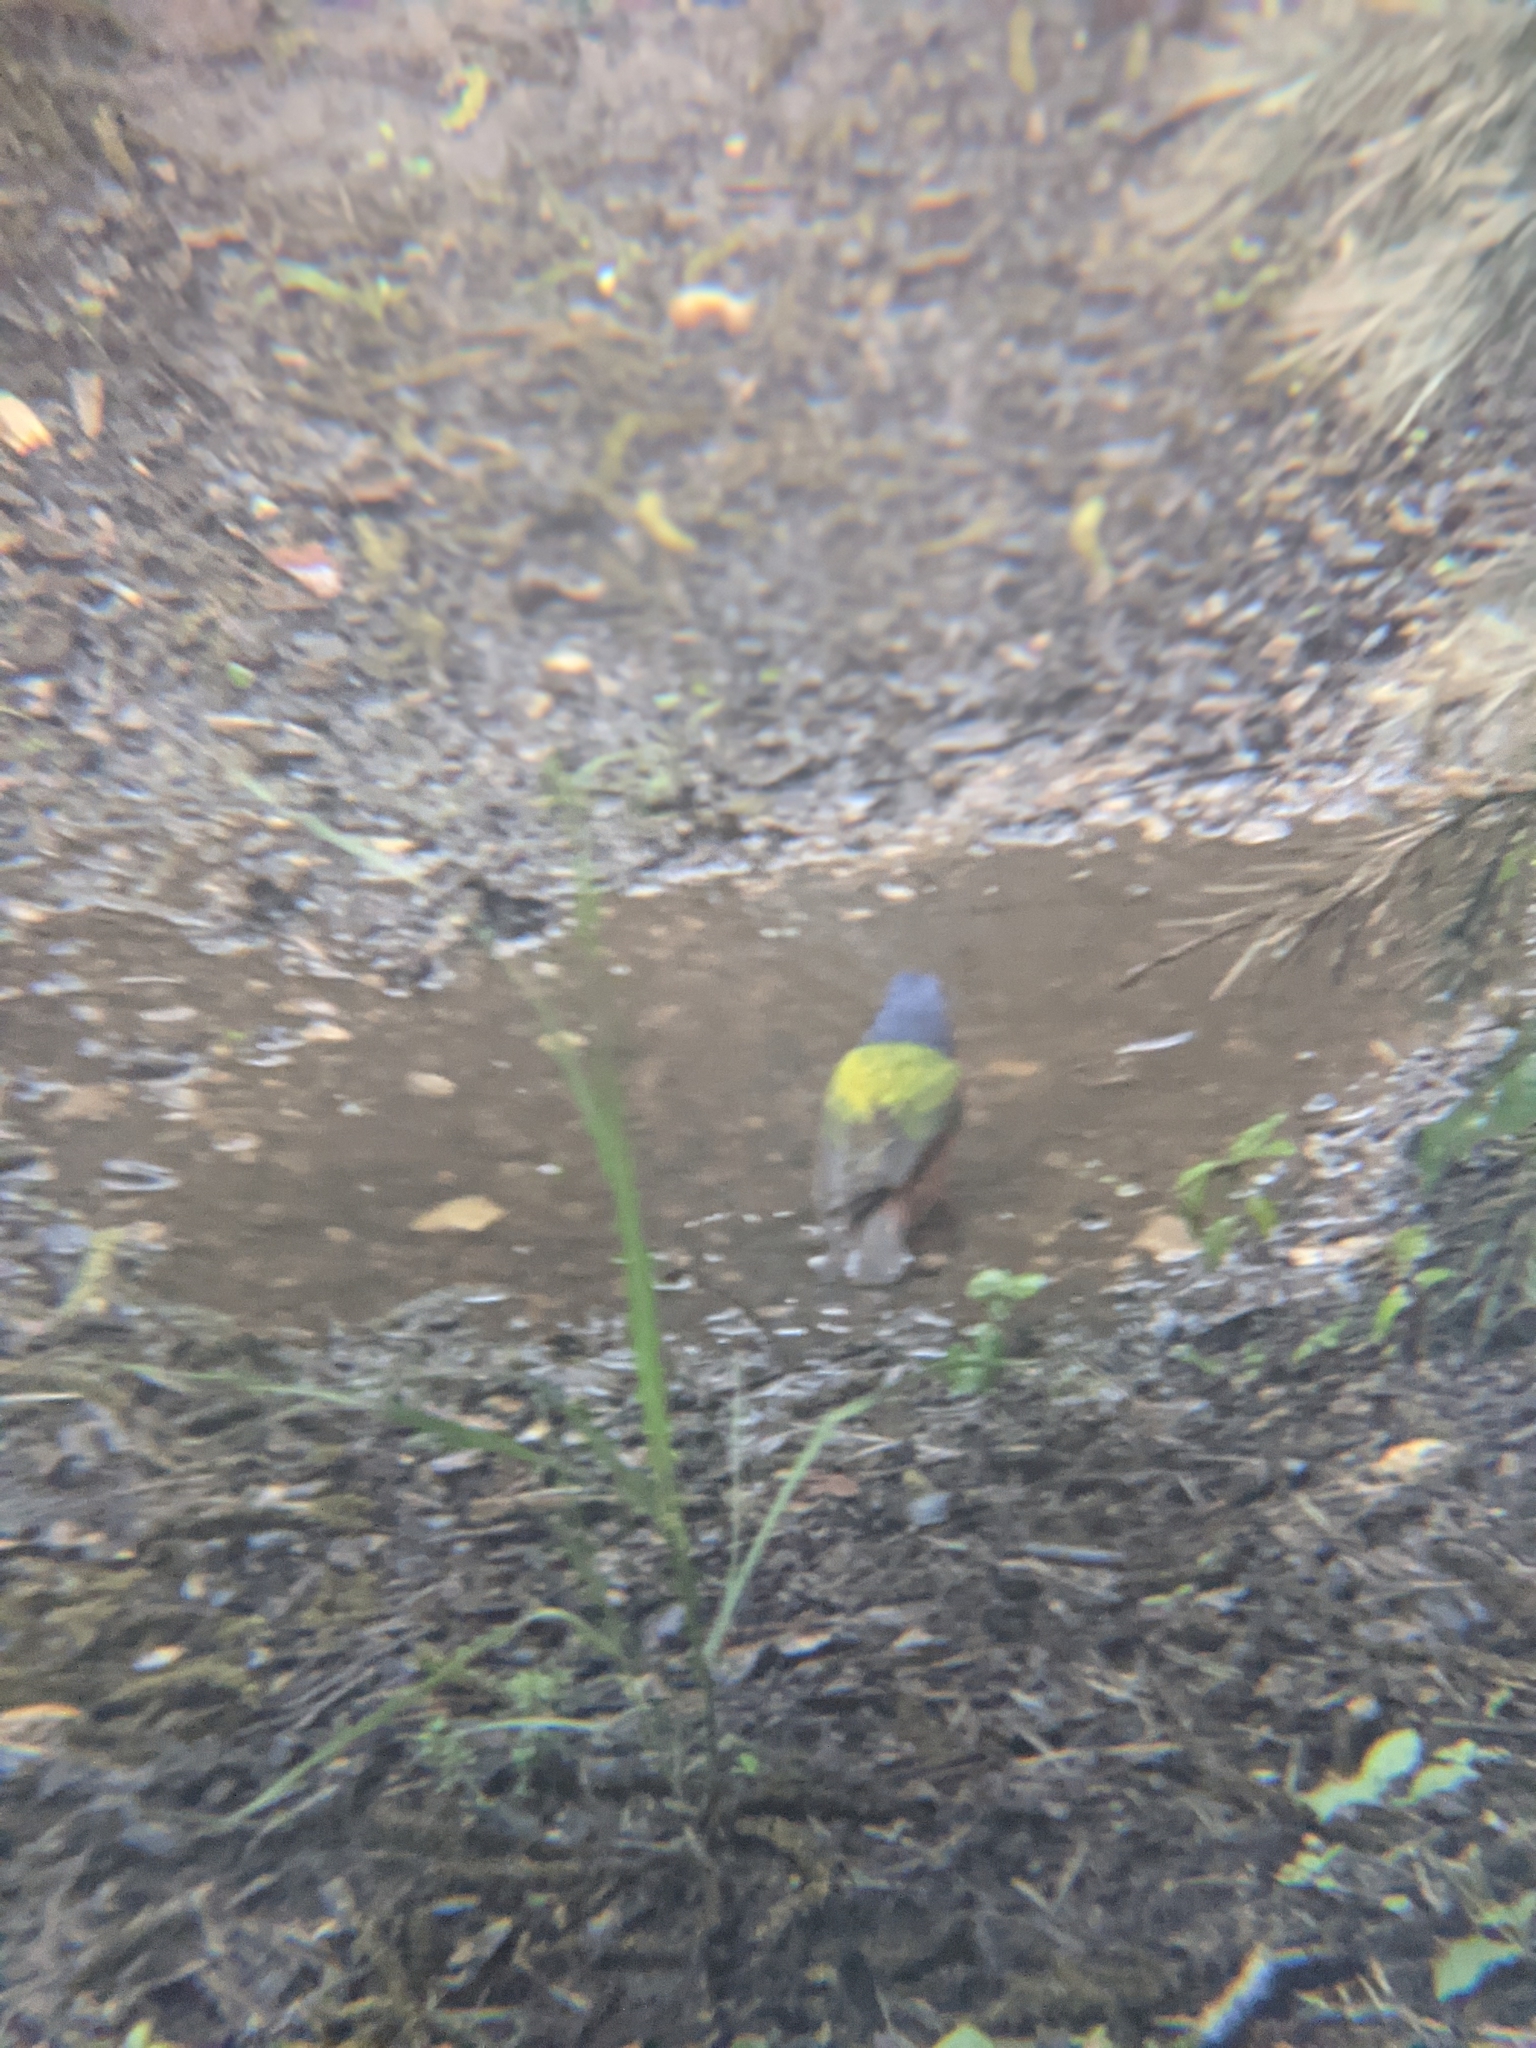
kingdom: Animalia
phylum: Chordata
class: Aves
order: Passeriformes
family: Cardinalidae
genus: Passerina
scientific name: Passerina ciris
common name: Painted bunting
